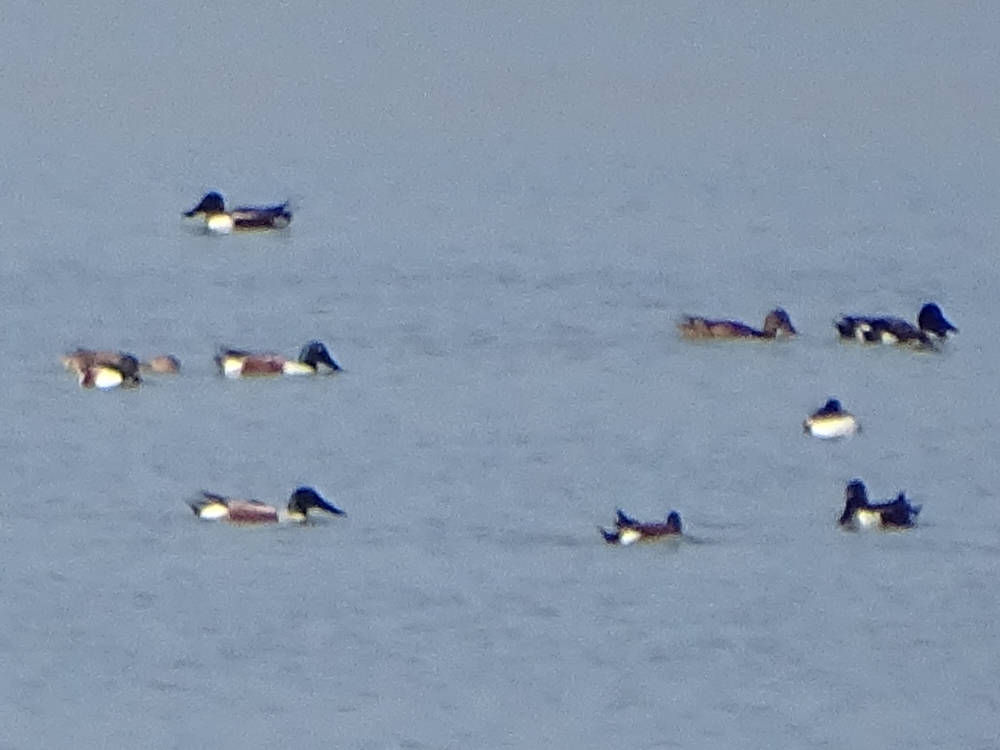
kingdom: Animalia
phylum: Chordata
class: Aves
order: Anseriformes
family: Anatidae
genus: Spatula
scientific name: Spatula clypeata
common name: Northern shoveler
